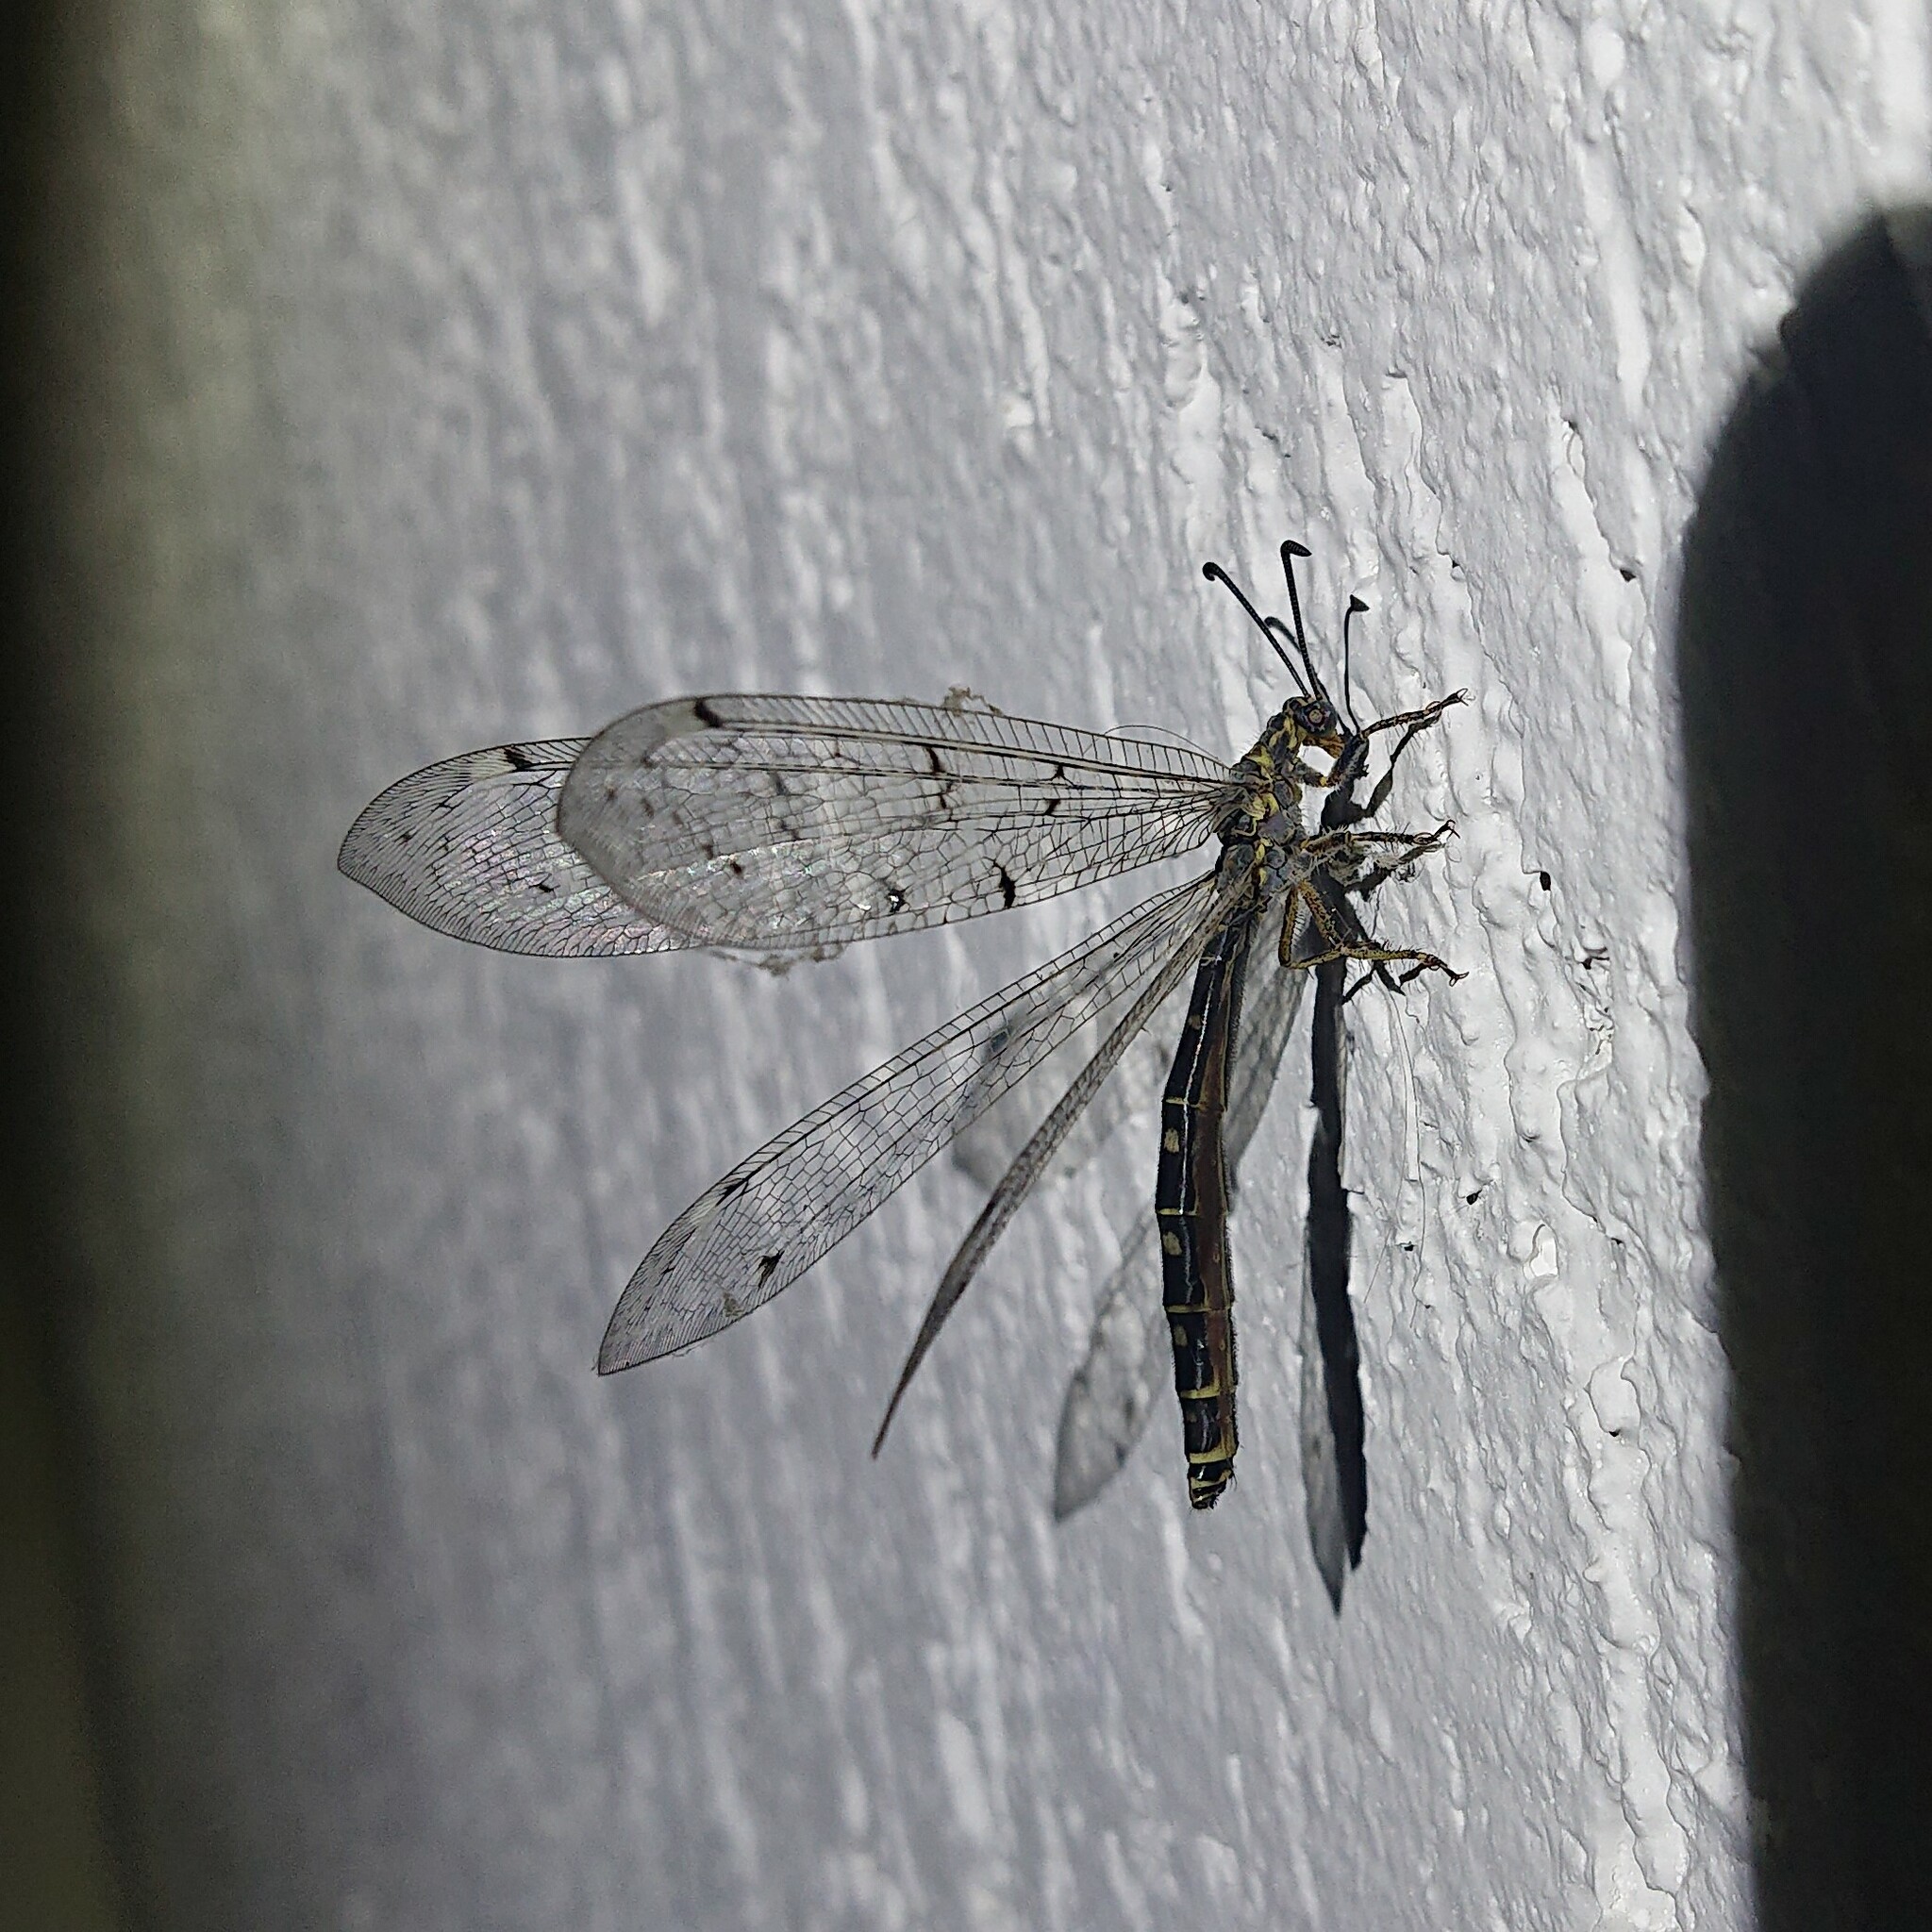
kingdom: Animalia
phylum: Arthropoda
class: Insecta
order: Neuroptera
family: Myrmeleontidae
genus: Distoleon
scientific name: Distoleon tetragrammicus
